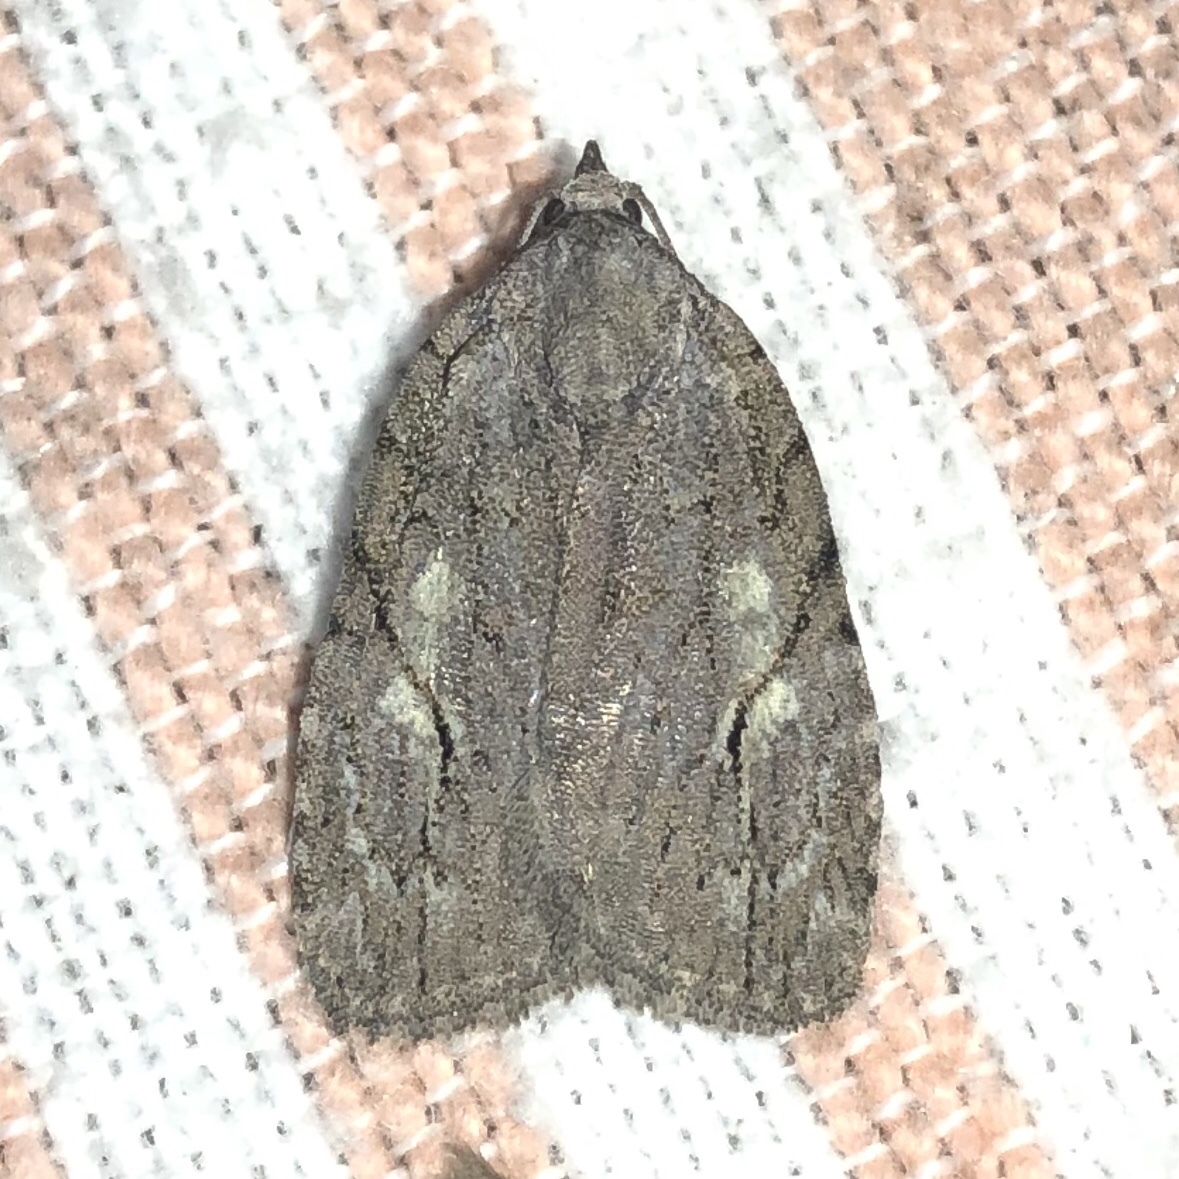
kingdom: Animalia
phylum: Arthropoda
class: Insecta
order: Lepidoptera
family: Noctuidae
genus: Balsa
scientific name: Balsa labecula
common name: White-blotched balsa moth
